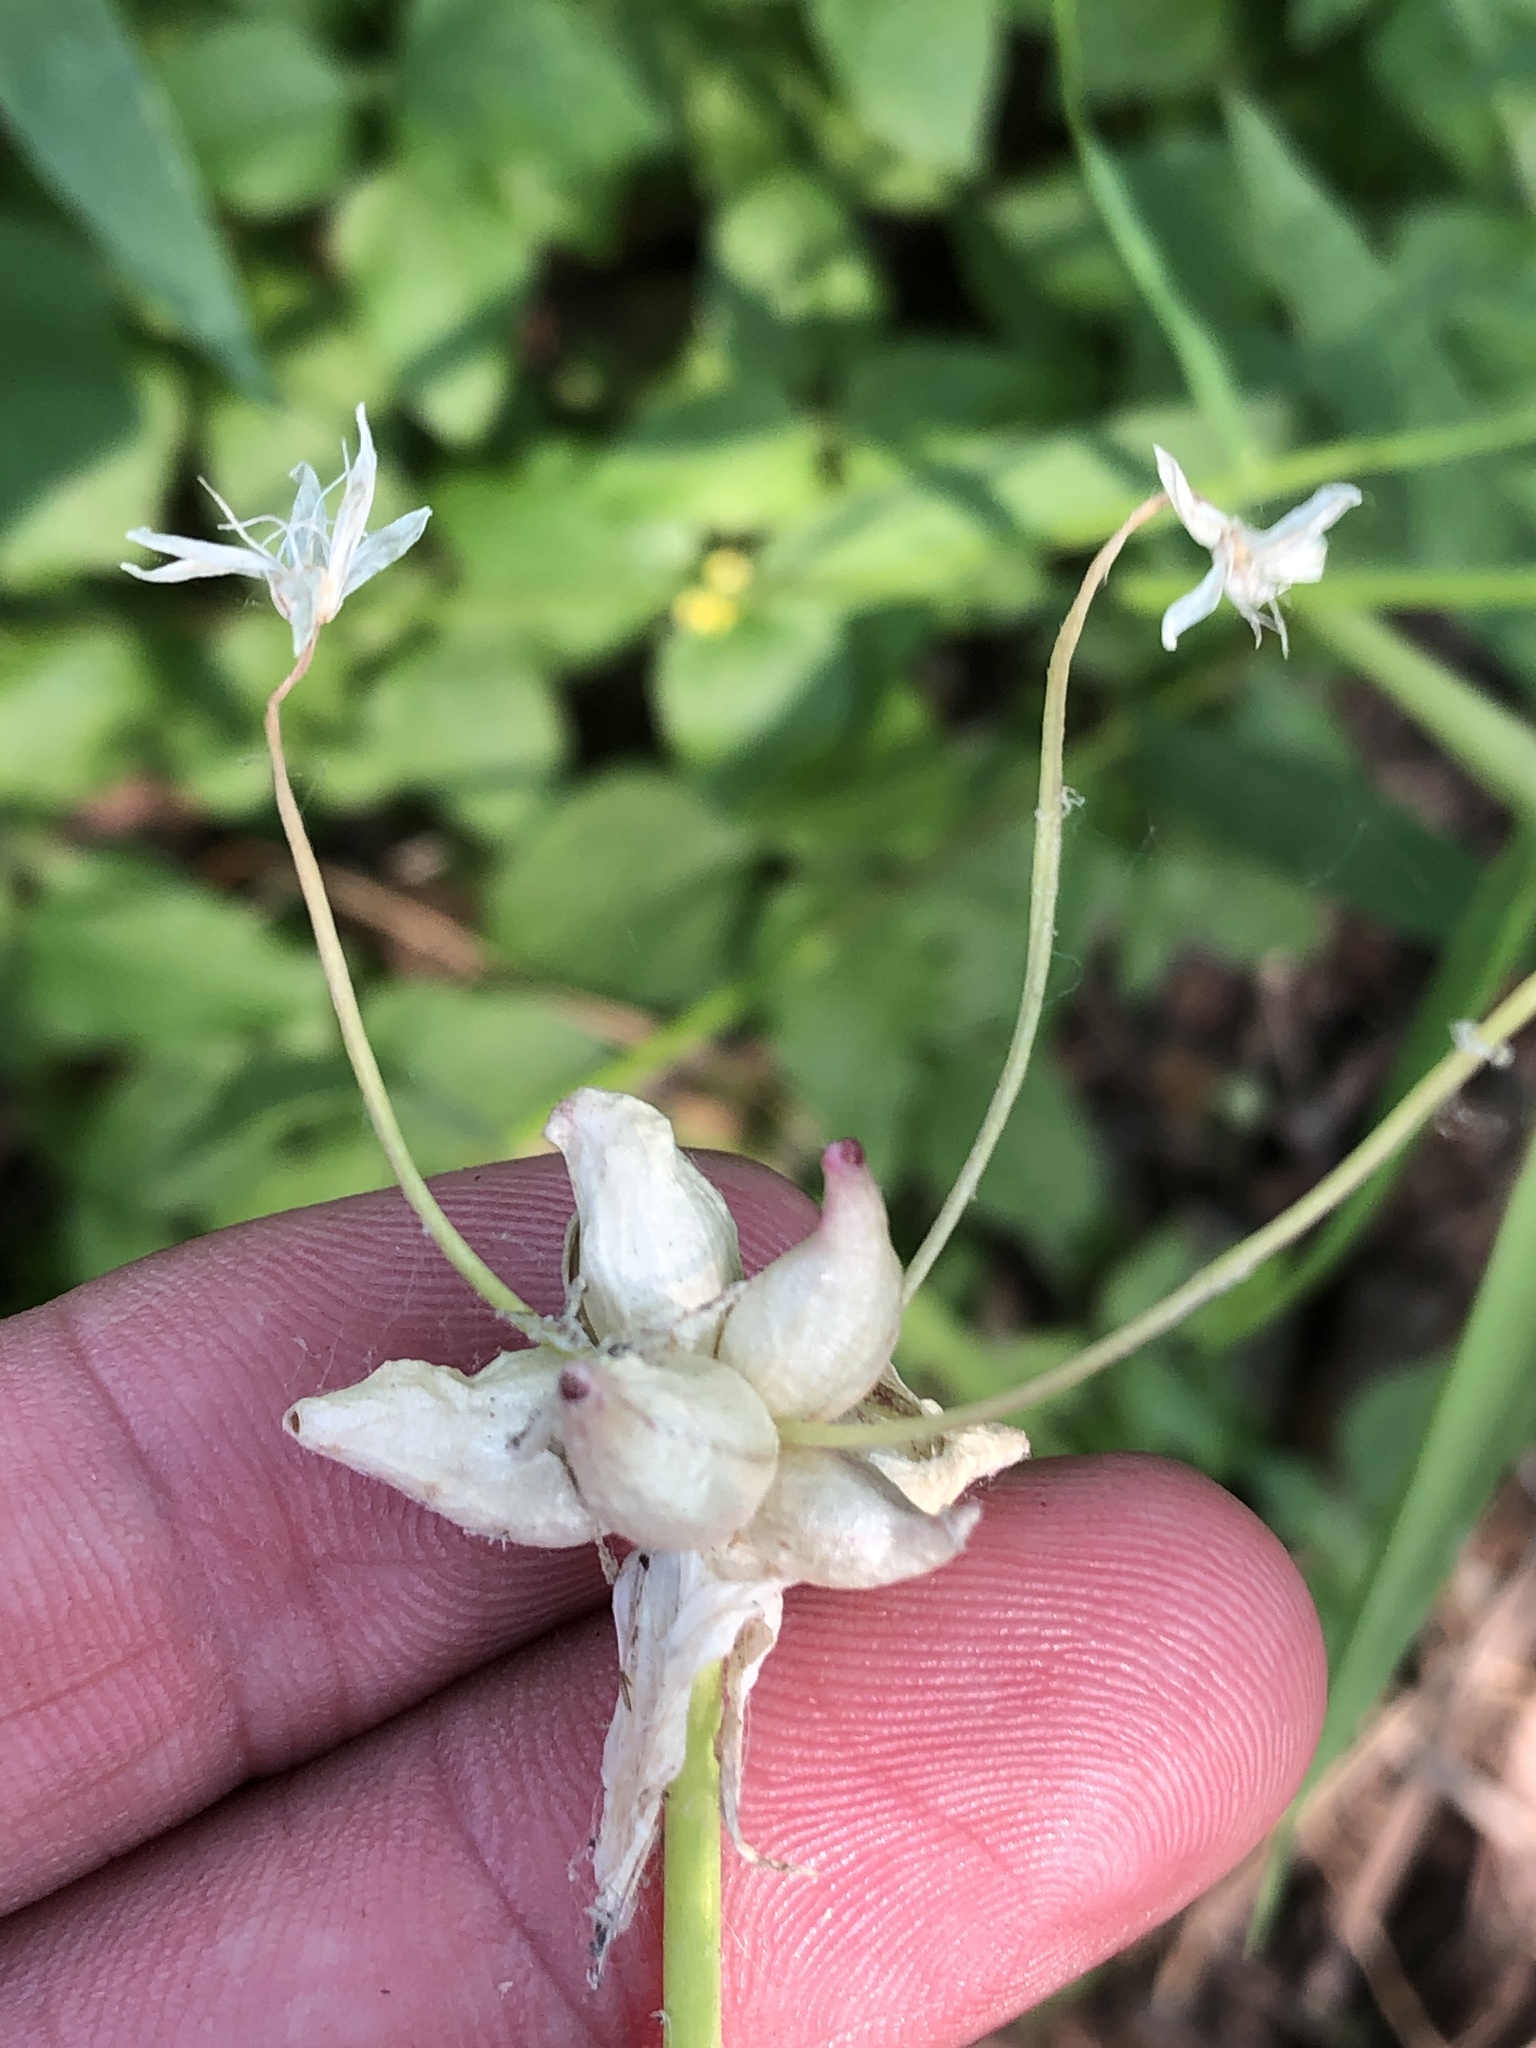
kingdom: Plantae
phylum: Tracheophyta
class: Liliopsida
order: Asparagales
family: Amaryllidaceae
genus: Allium
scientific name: Allium canadense
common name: Meadow garlic
